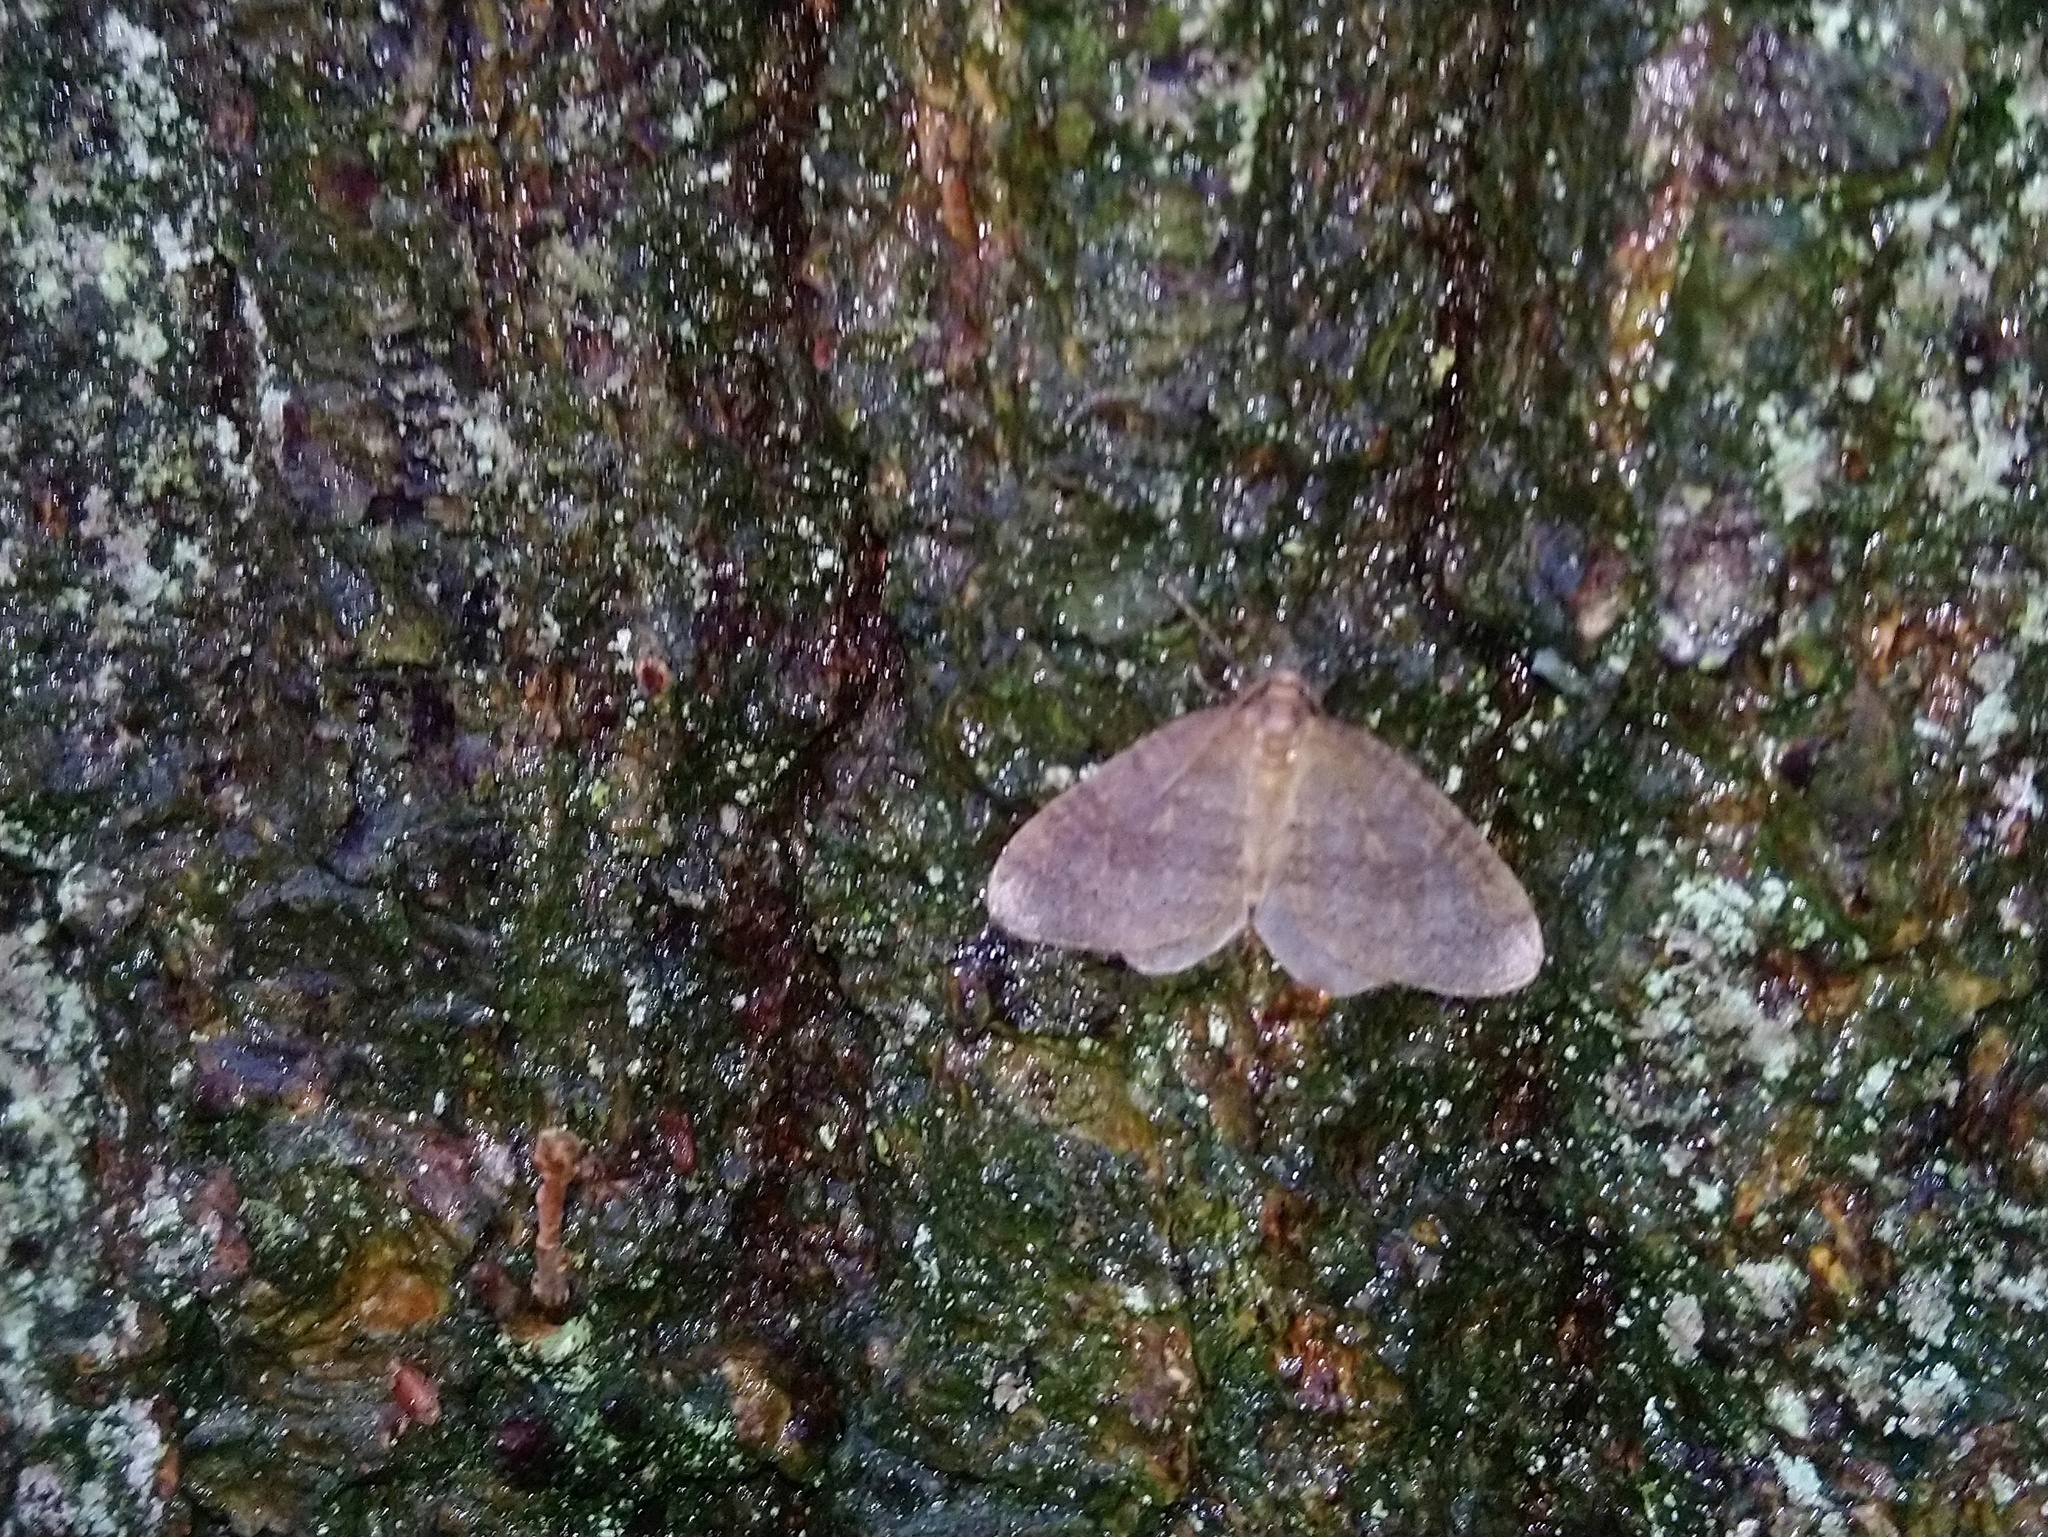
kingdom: Animalia
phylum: Arthropoda
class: Insecta
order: Lepidoptera
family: Geometridae
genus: Operophtera
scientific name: Operophtera brumata
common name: Winter moth
